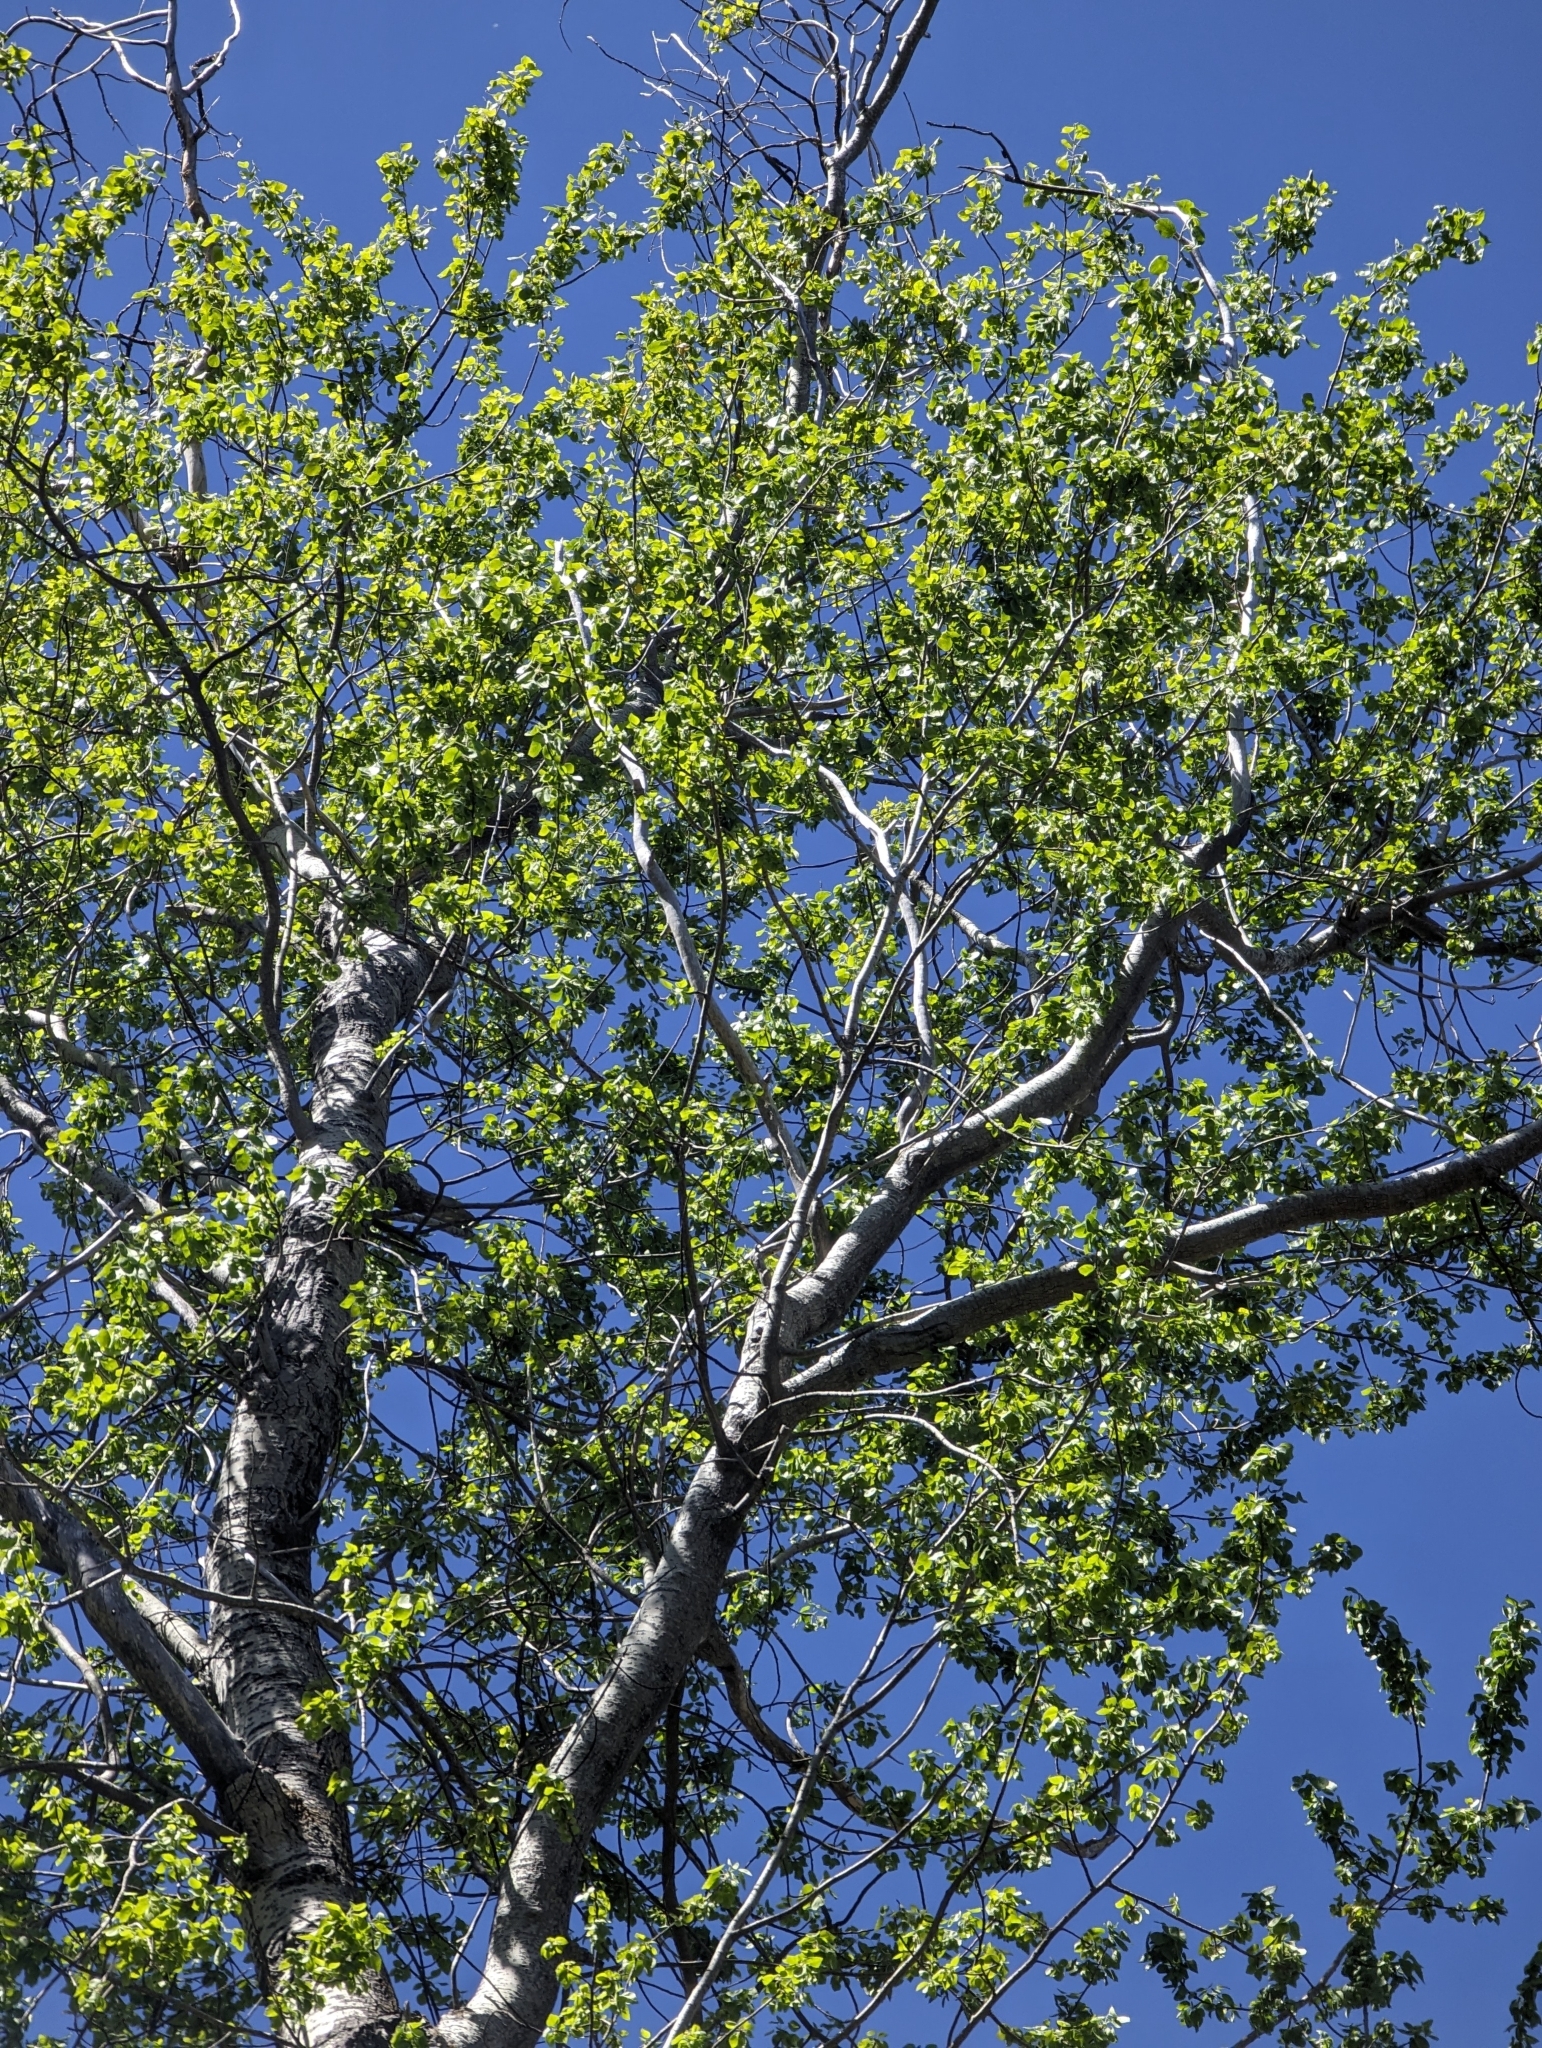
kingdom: Plantae
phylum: Tracheophyta
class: Magnoliopsida
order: Malpighiales
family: Salicaceae
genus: Populus
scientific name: Populus brandegeei
